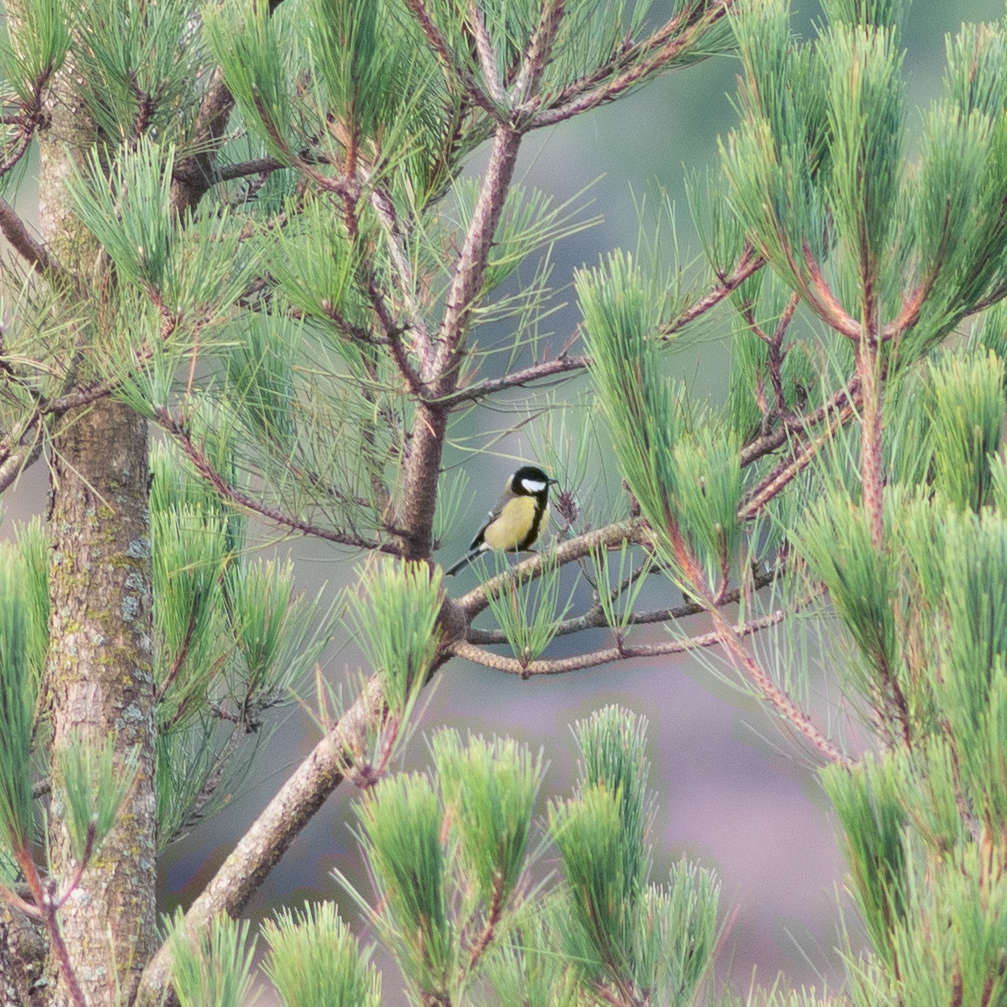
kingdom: Animalia
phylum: Chordata
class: Aves
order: Passeriformes
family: Paridae
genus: Parus
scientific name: Parus major
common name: Great tit
